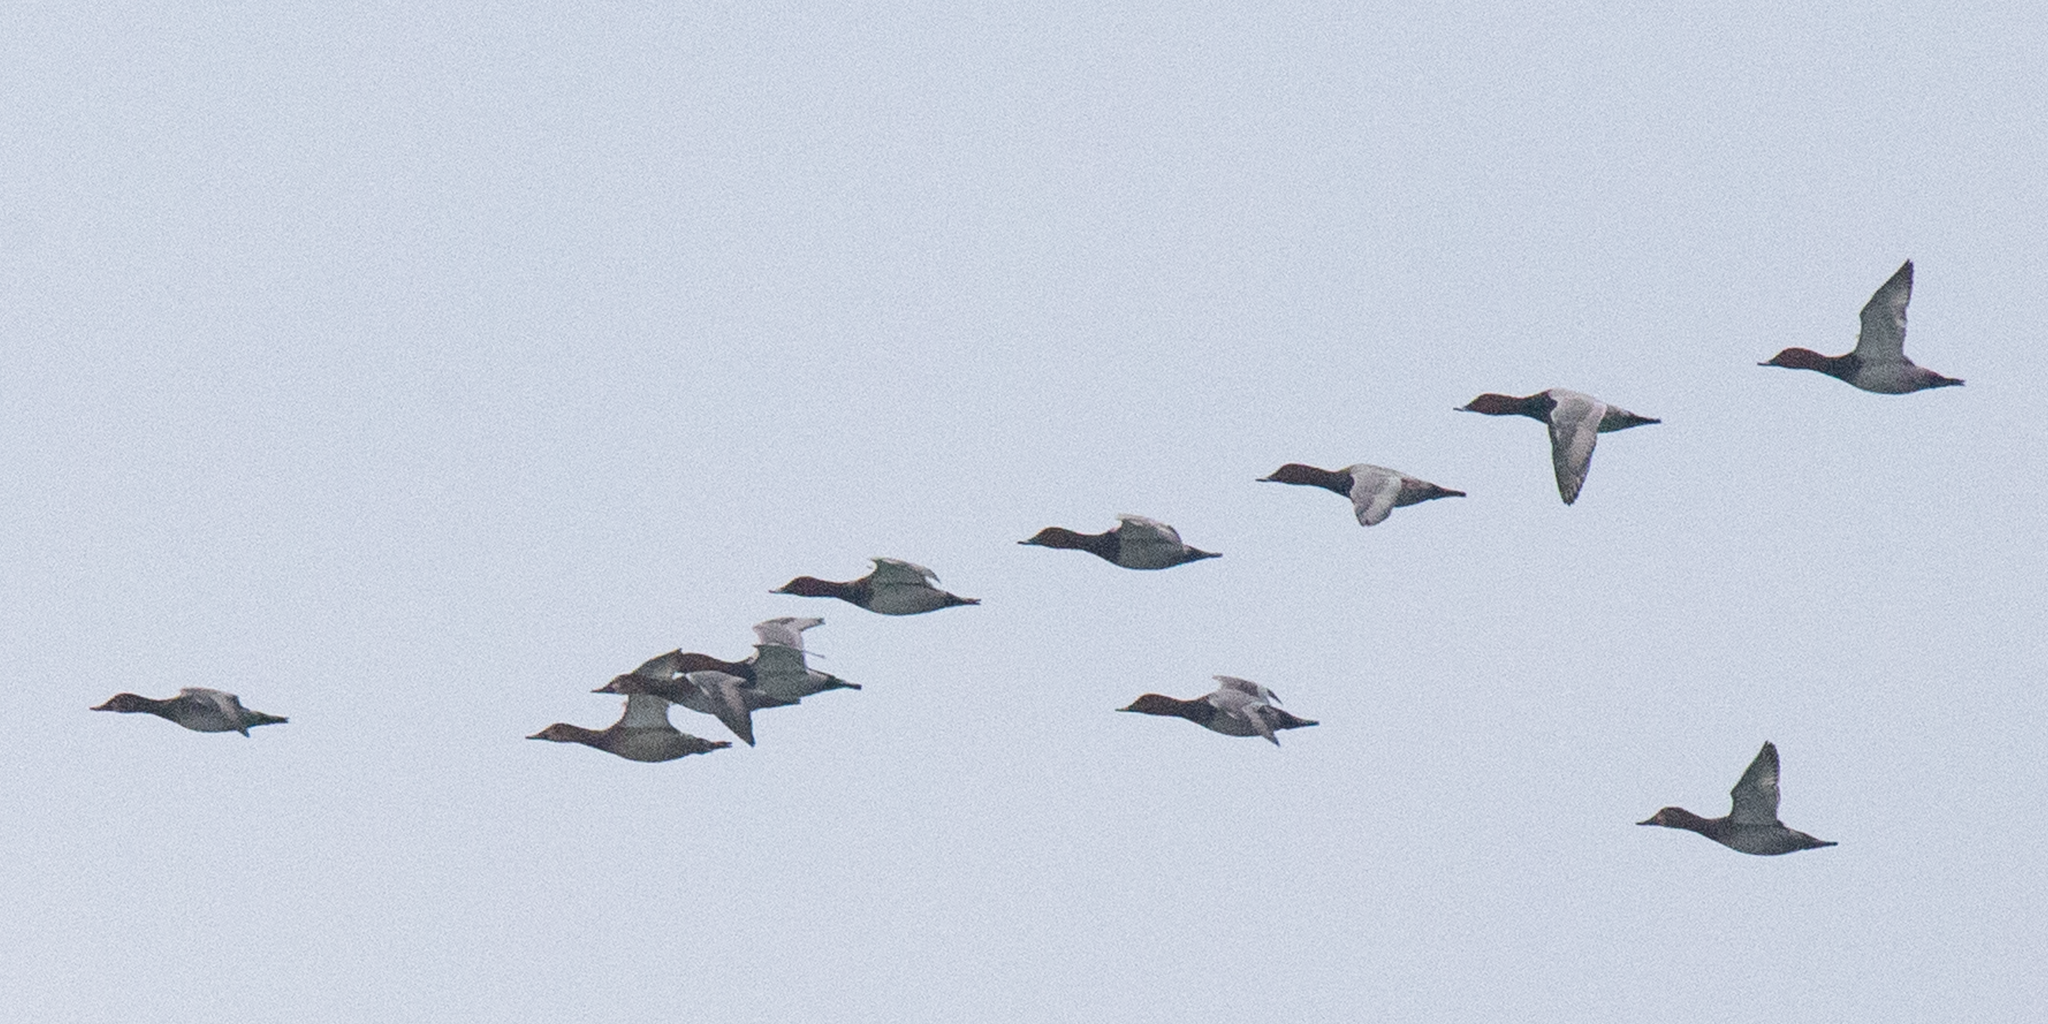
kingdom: Animalia
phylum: Chordata
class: Aves
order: Anseriformes
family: Anatidae
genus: Aythya
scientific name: Aythya ferina
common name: Common pochard
